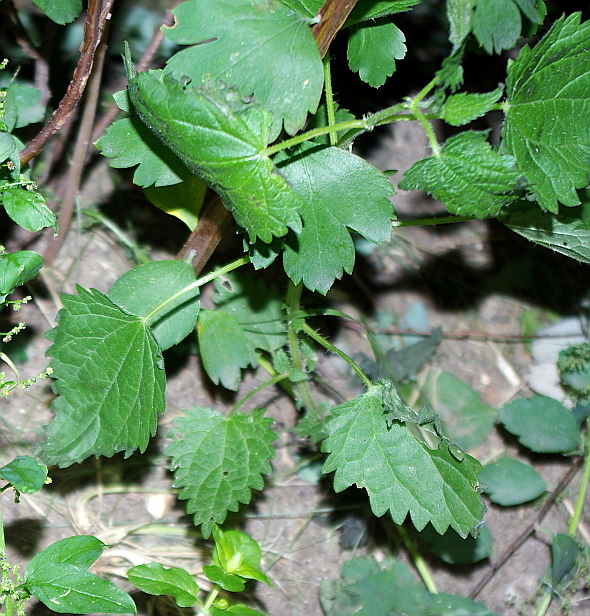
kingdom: Plantae
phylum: Tracheophyta
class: Magnoliopsida
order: Rosales
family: Urticaceae
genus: Urtica
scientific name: Urtica dioica
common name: Common nettle
